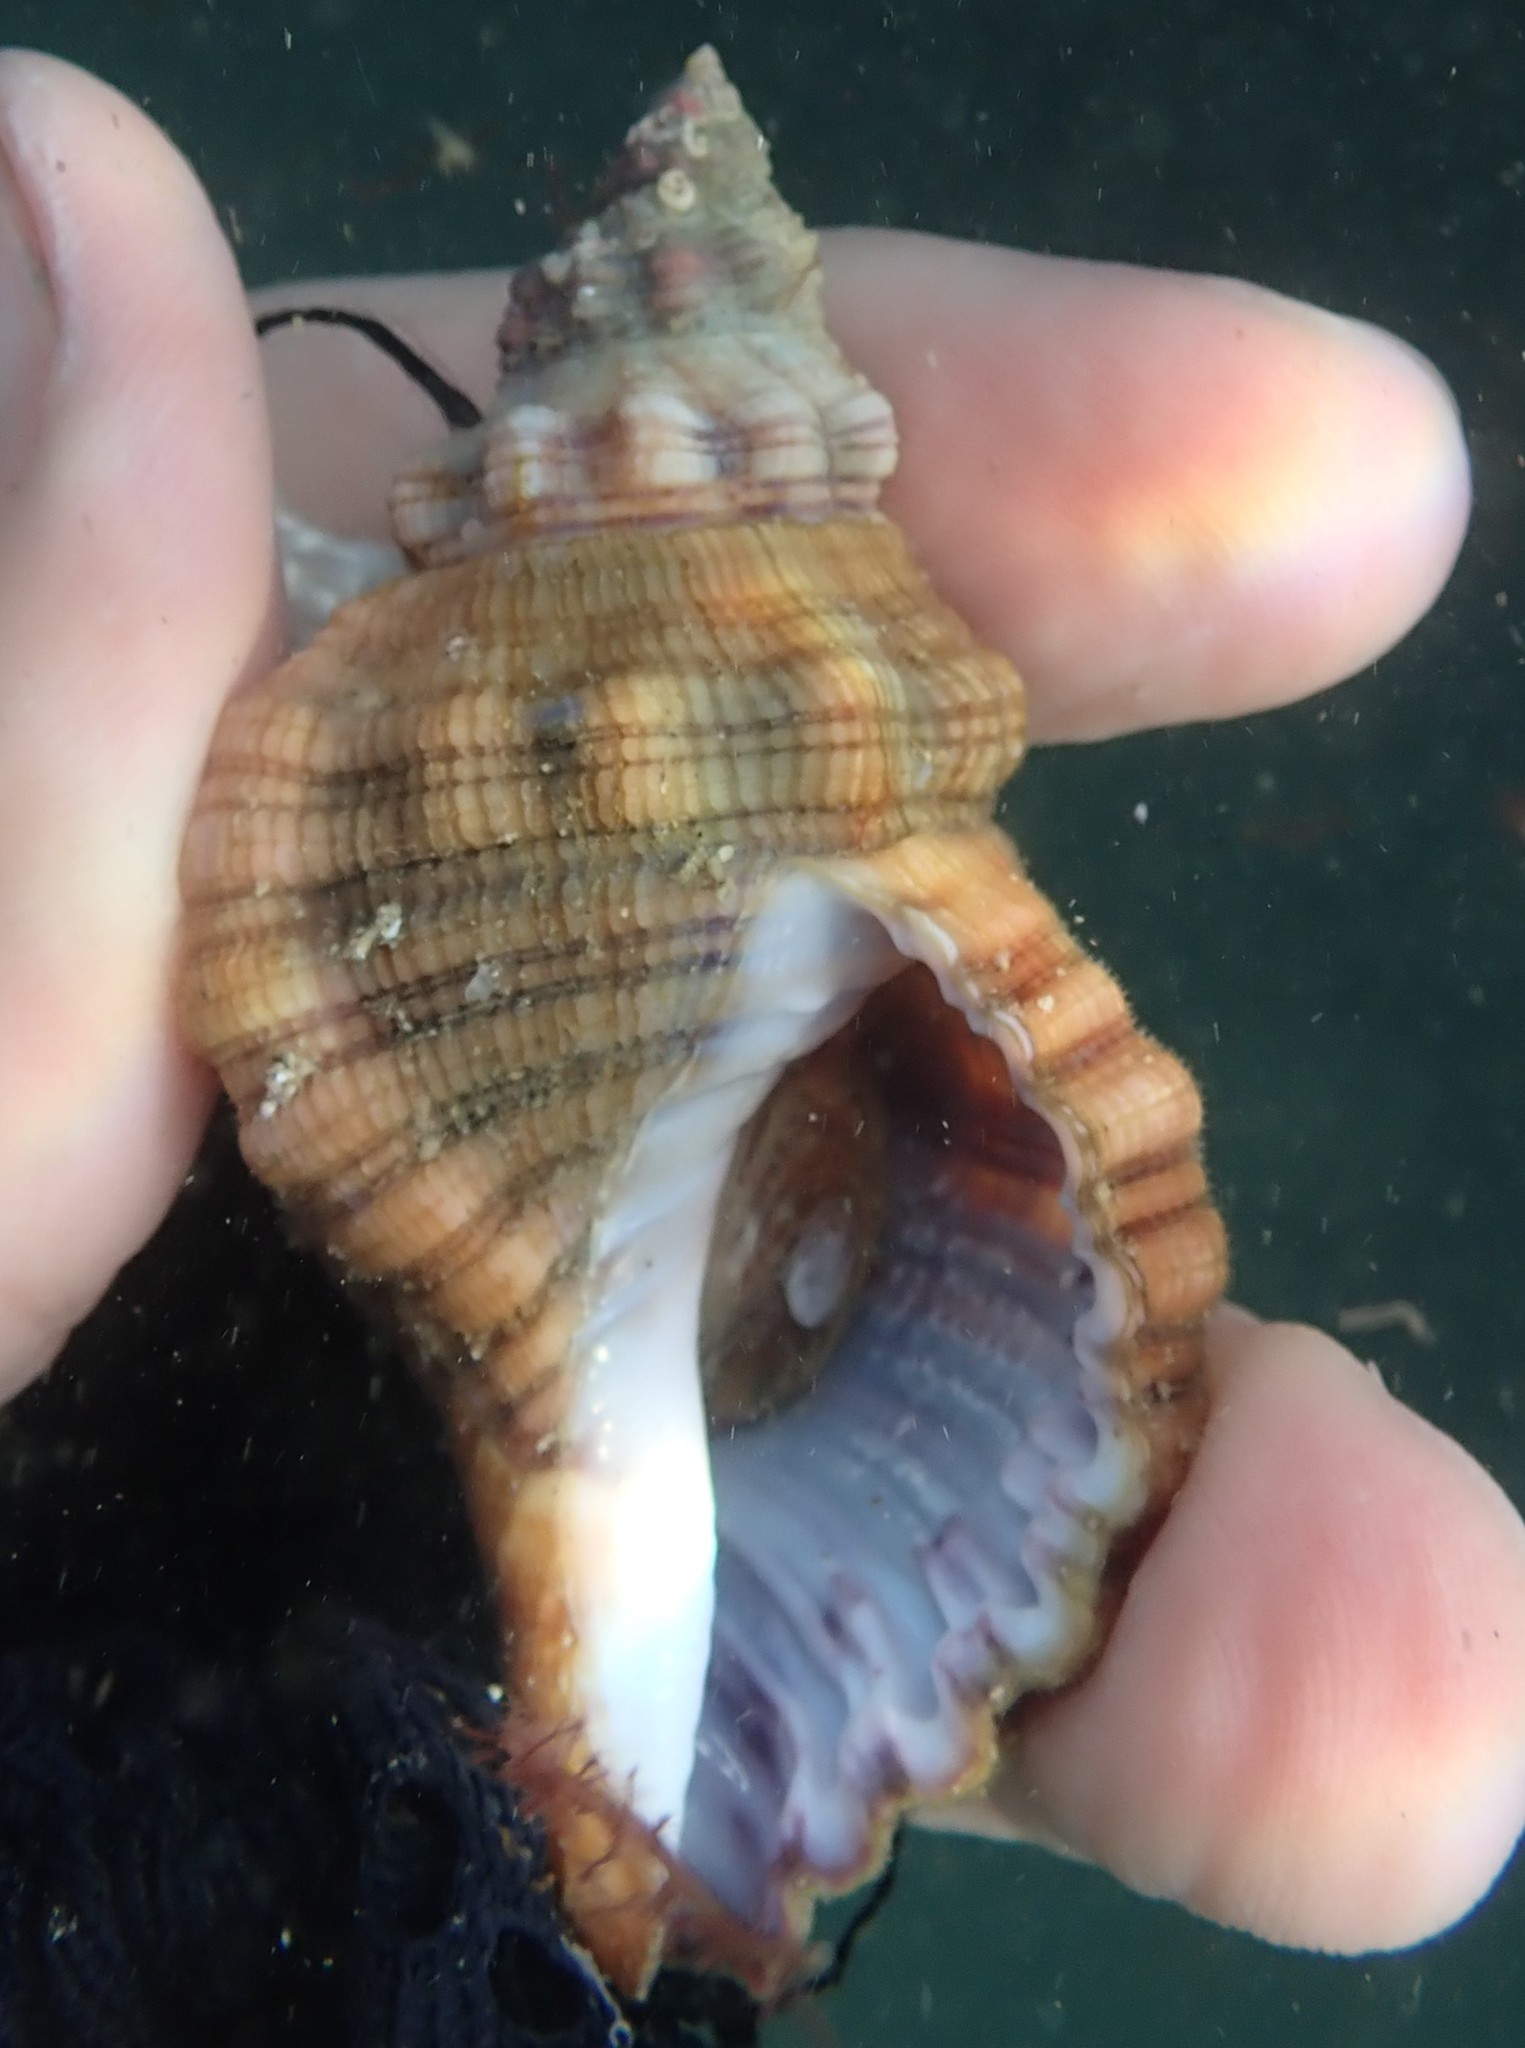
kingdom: Animalia
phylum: Mollusca
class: Gastropoda
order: Littorinimorpha
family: Cymatiidae
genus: Cabestana
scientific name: Cabestana spengleri
